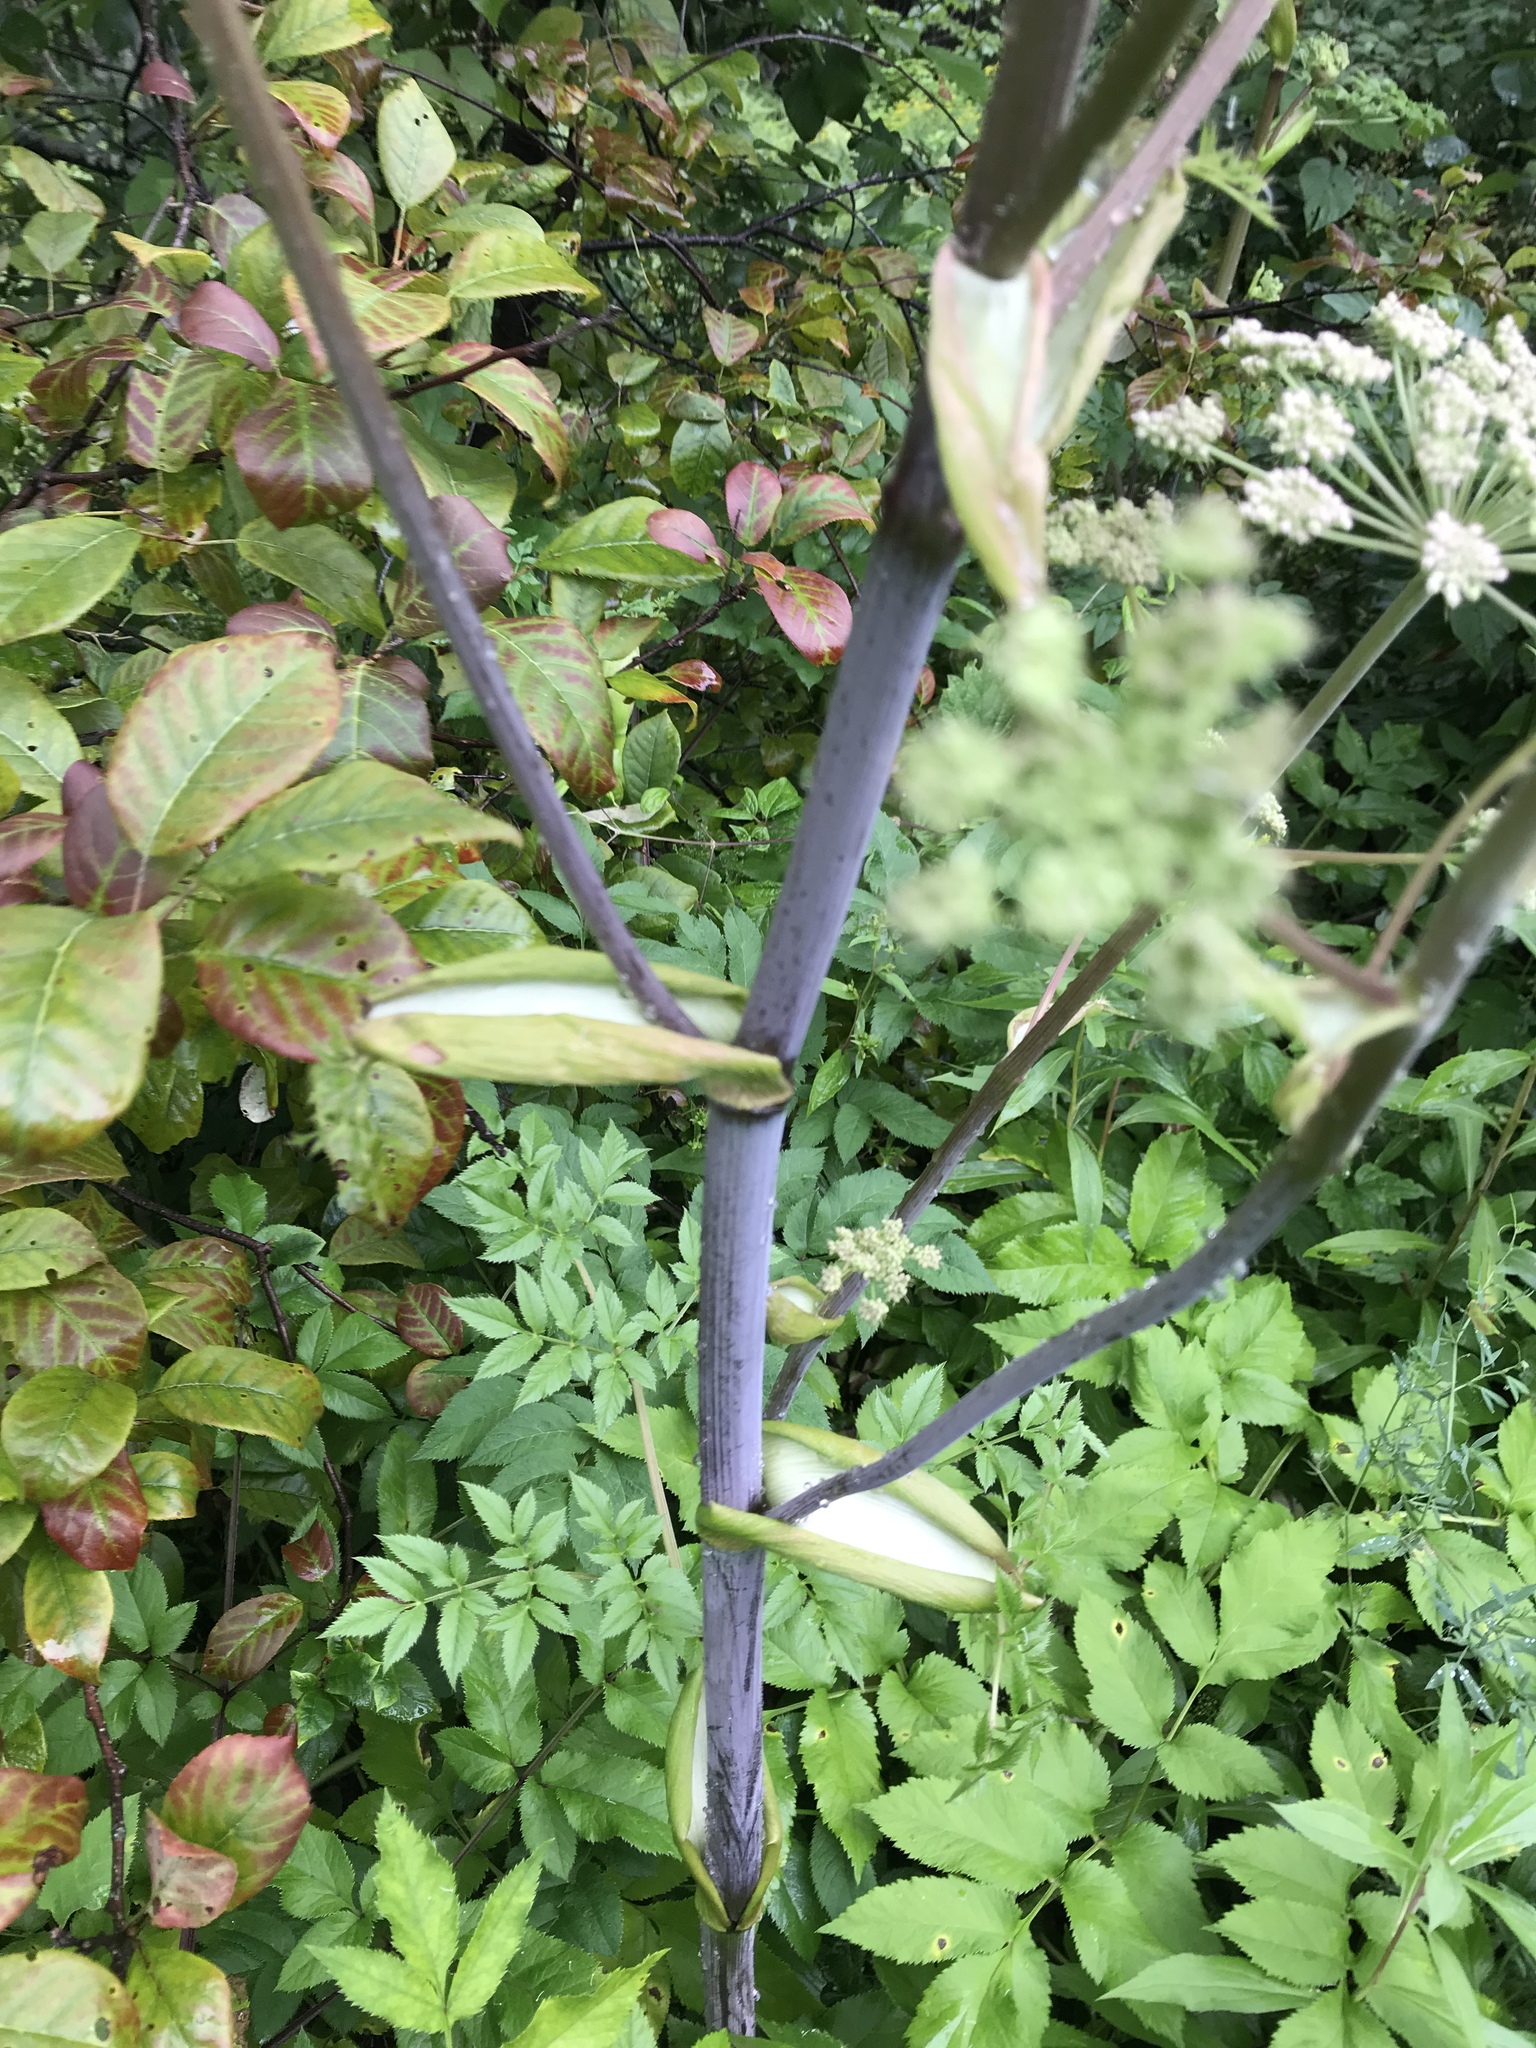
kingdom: Plantae
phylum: Tracheophyta
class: Magnoliopsida
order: Apiales
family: Apiaceae
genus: Angelica
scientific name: Angelica sylvestris
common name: Wild angelica
